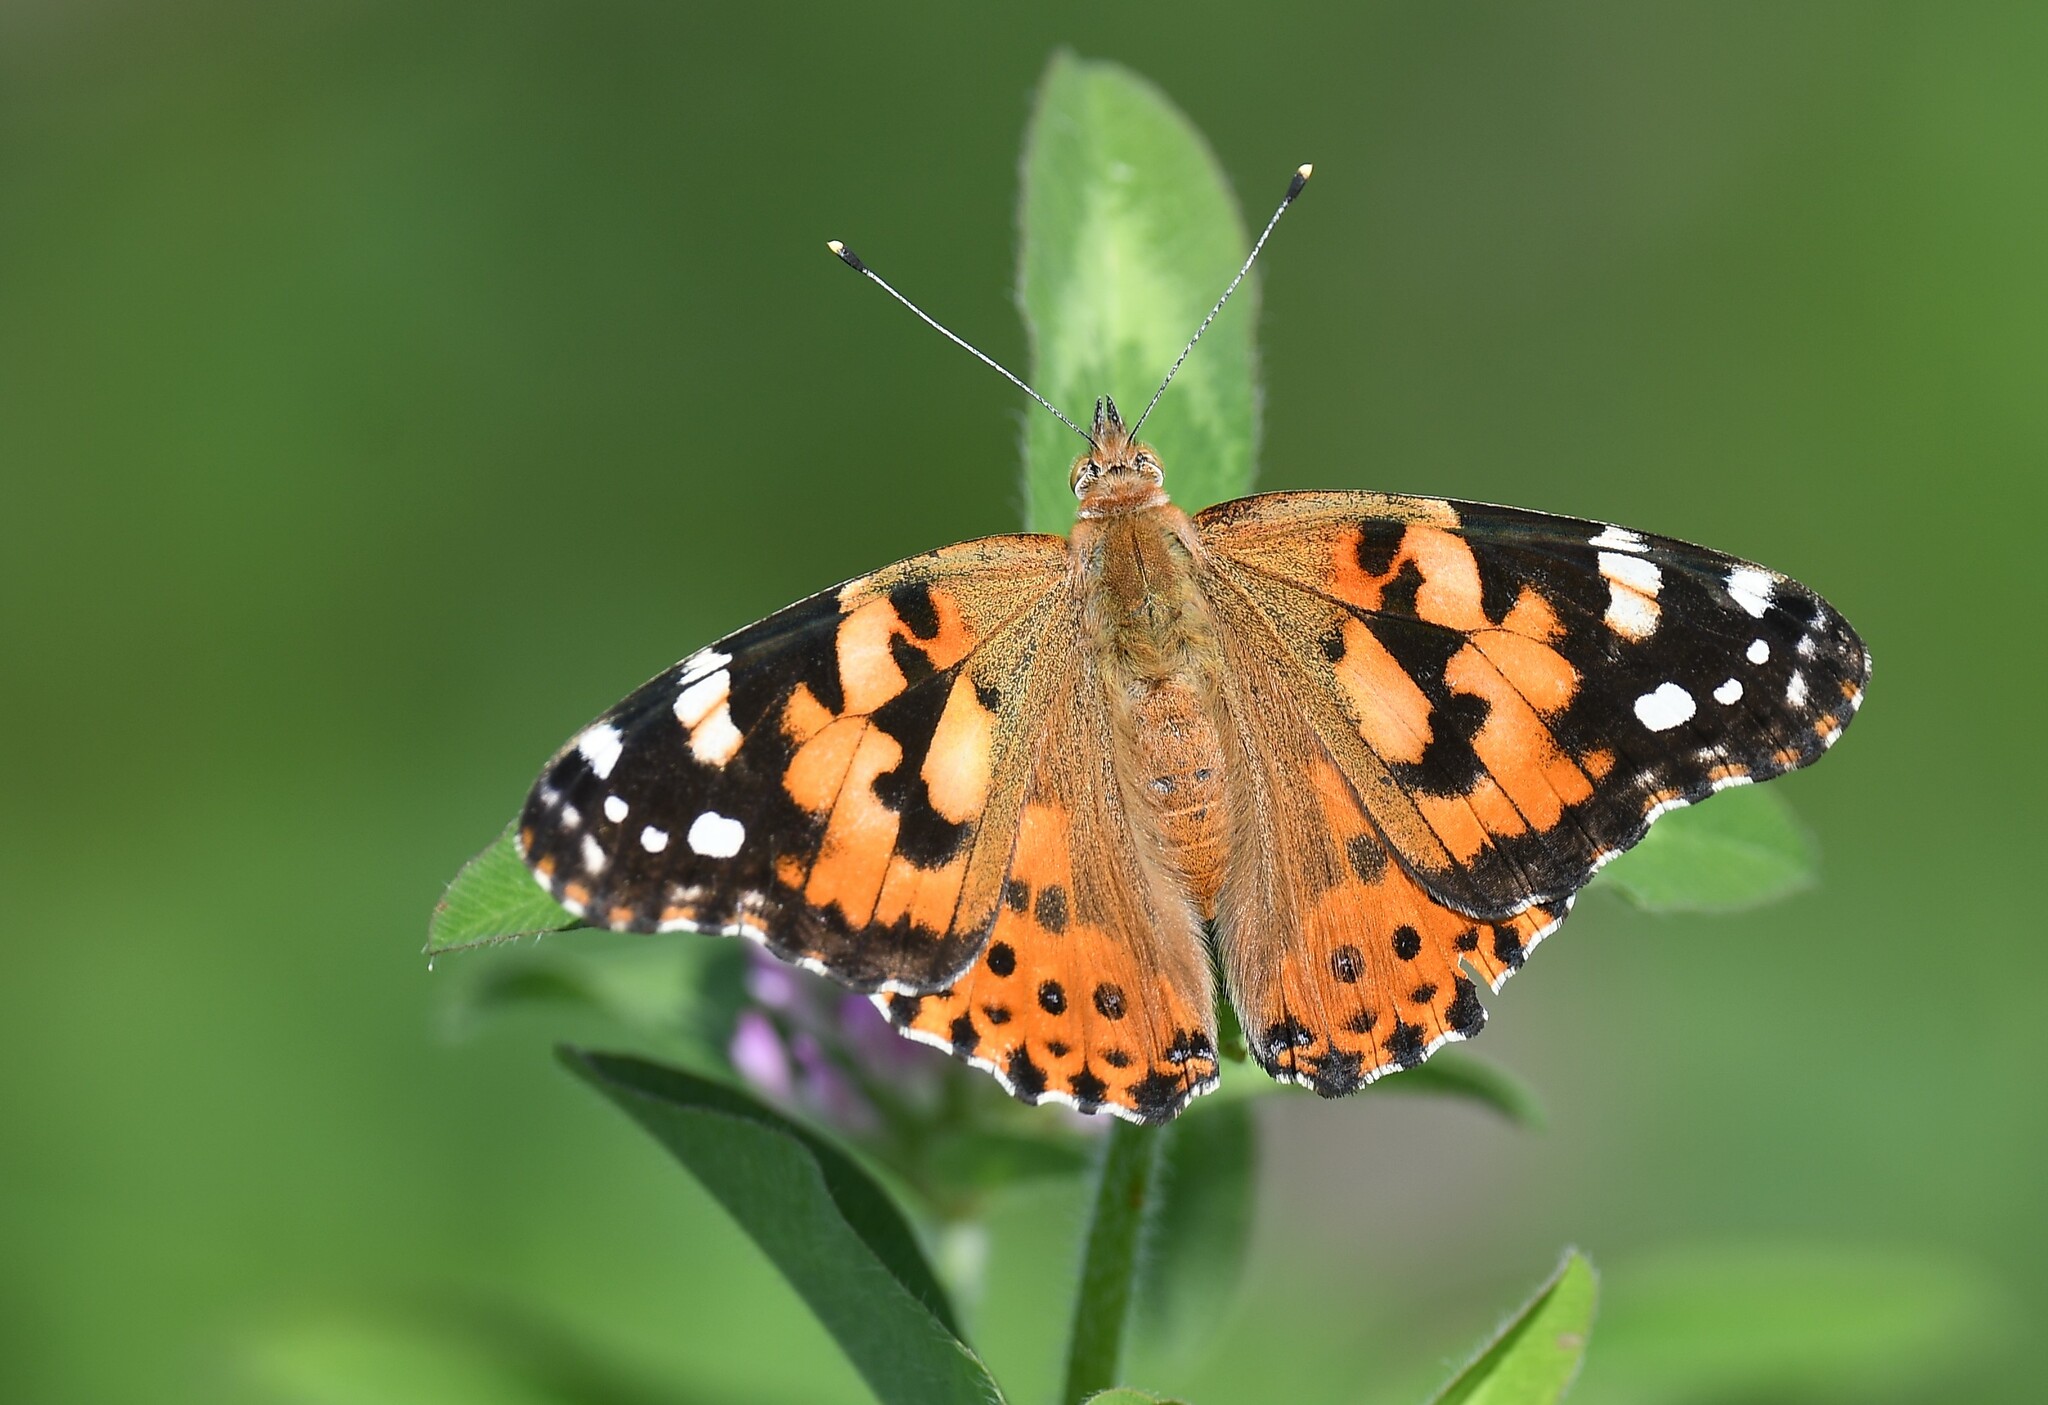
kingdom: Animalia
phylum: Arthropoda
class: Insecta
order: Lepidoptera
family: Nymphalidae
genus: Vanessa
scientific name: Vanessa cardui
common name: Painted lady
